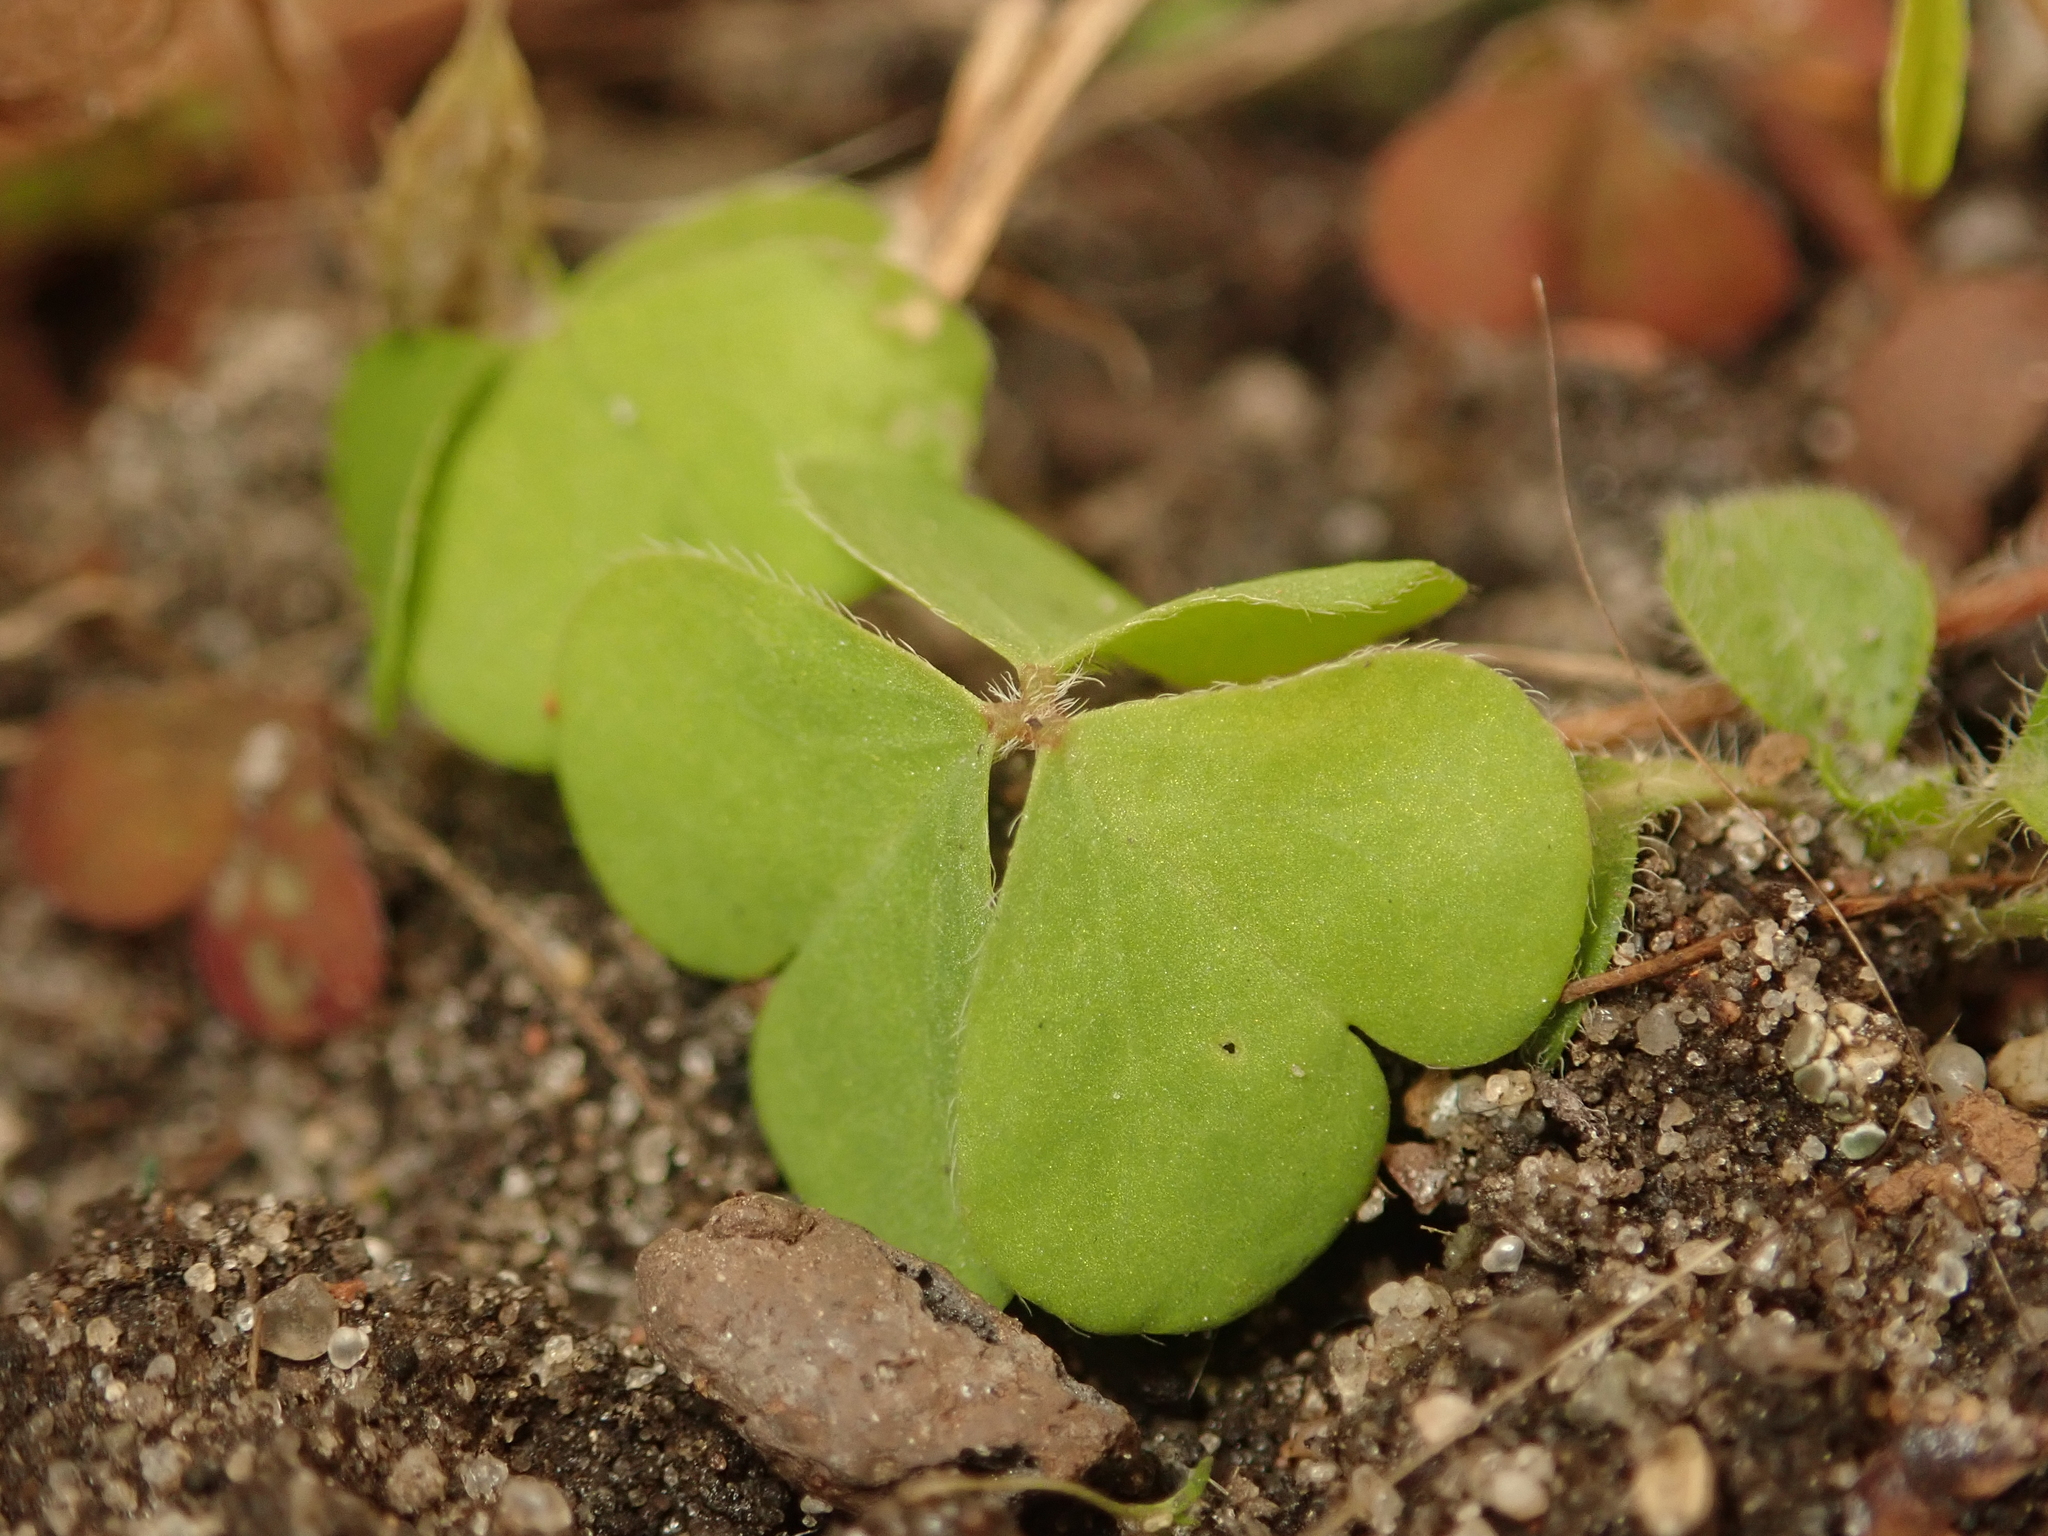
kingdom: Plantae
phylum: Tracheophyta
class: Magnoliopsida
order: Oxalidales
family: Oxalidaceae
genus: Oxalis
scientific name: Oxalis corniculata
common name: Procumbent yellow-sorrel
